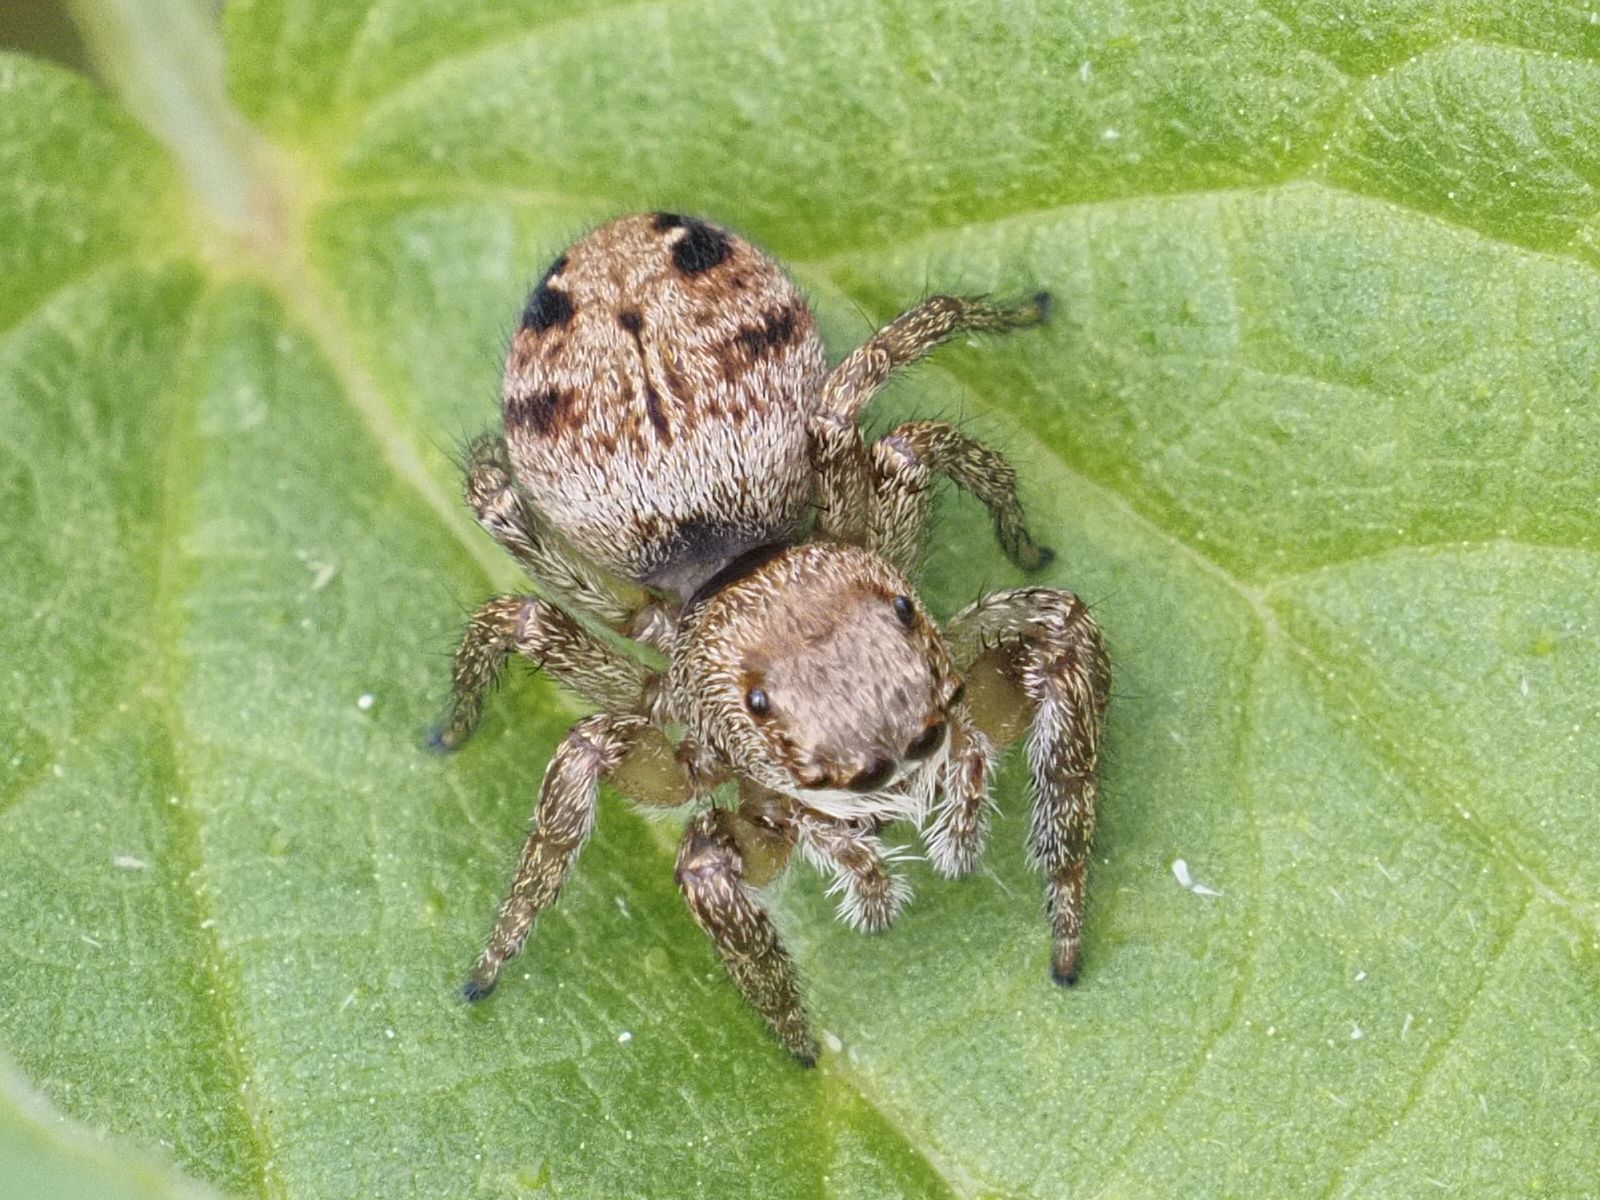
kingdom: Animalia
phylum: Arthropoda
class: Arachnida
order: Araneae
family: Salticidae
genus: Evarcha
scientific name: Evarcha arcuata
